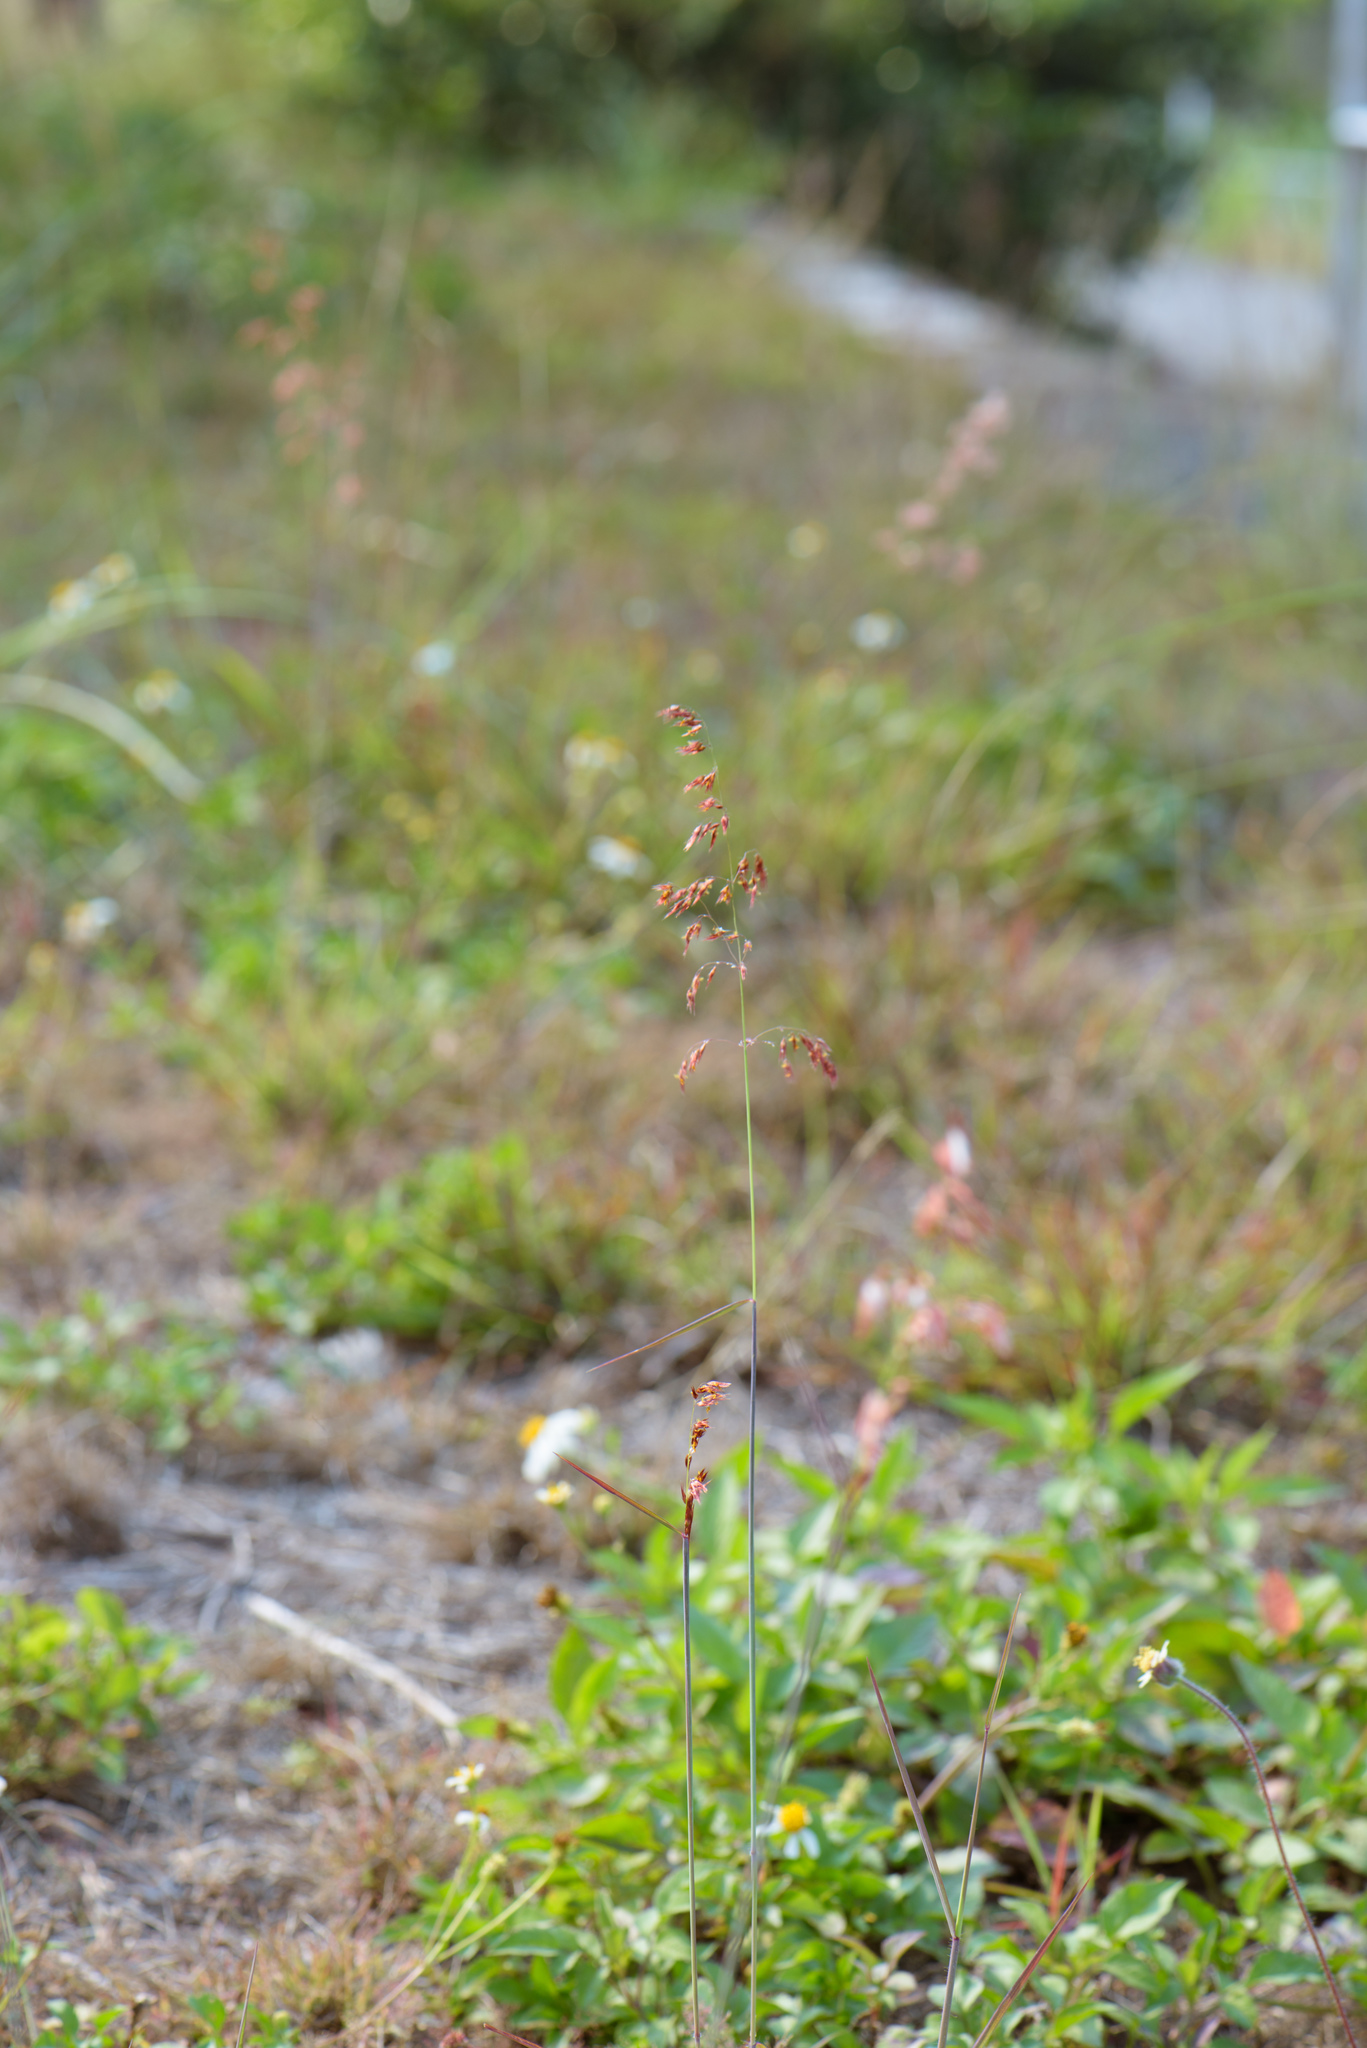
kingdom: Plantae
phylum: Tracheophyta
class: Liliopsida
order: Poales
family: Poaceae
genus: Melinis
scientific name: Melinis repens
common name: Rose natal grass
